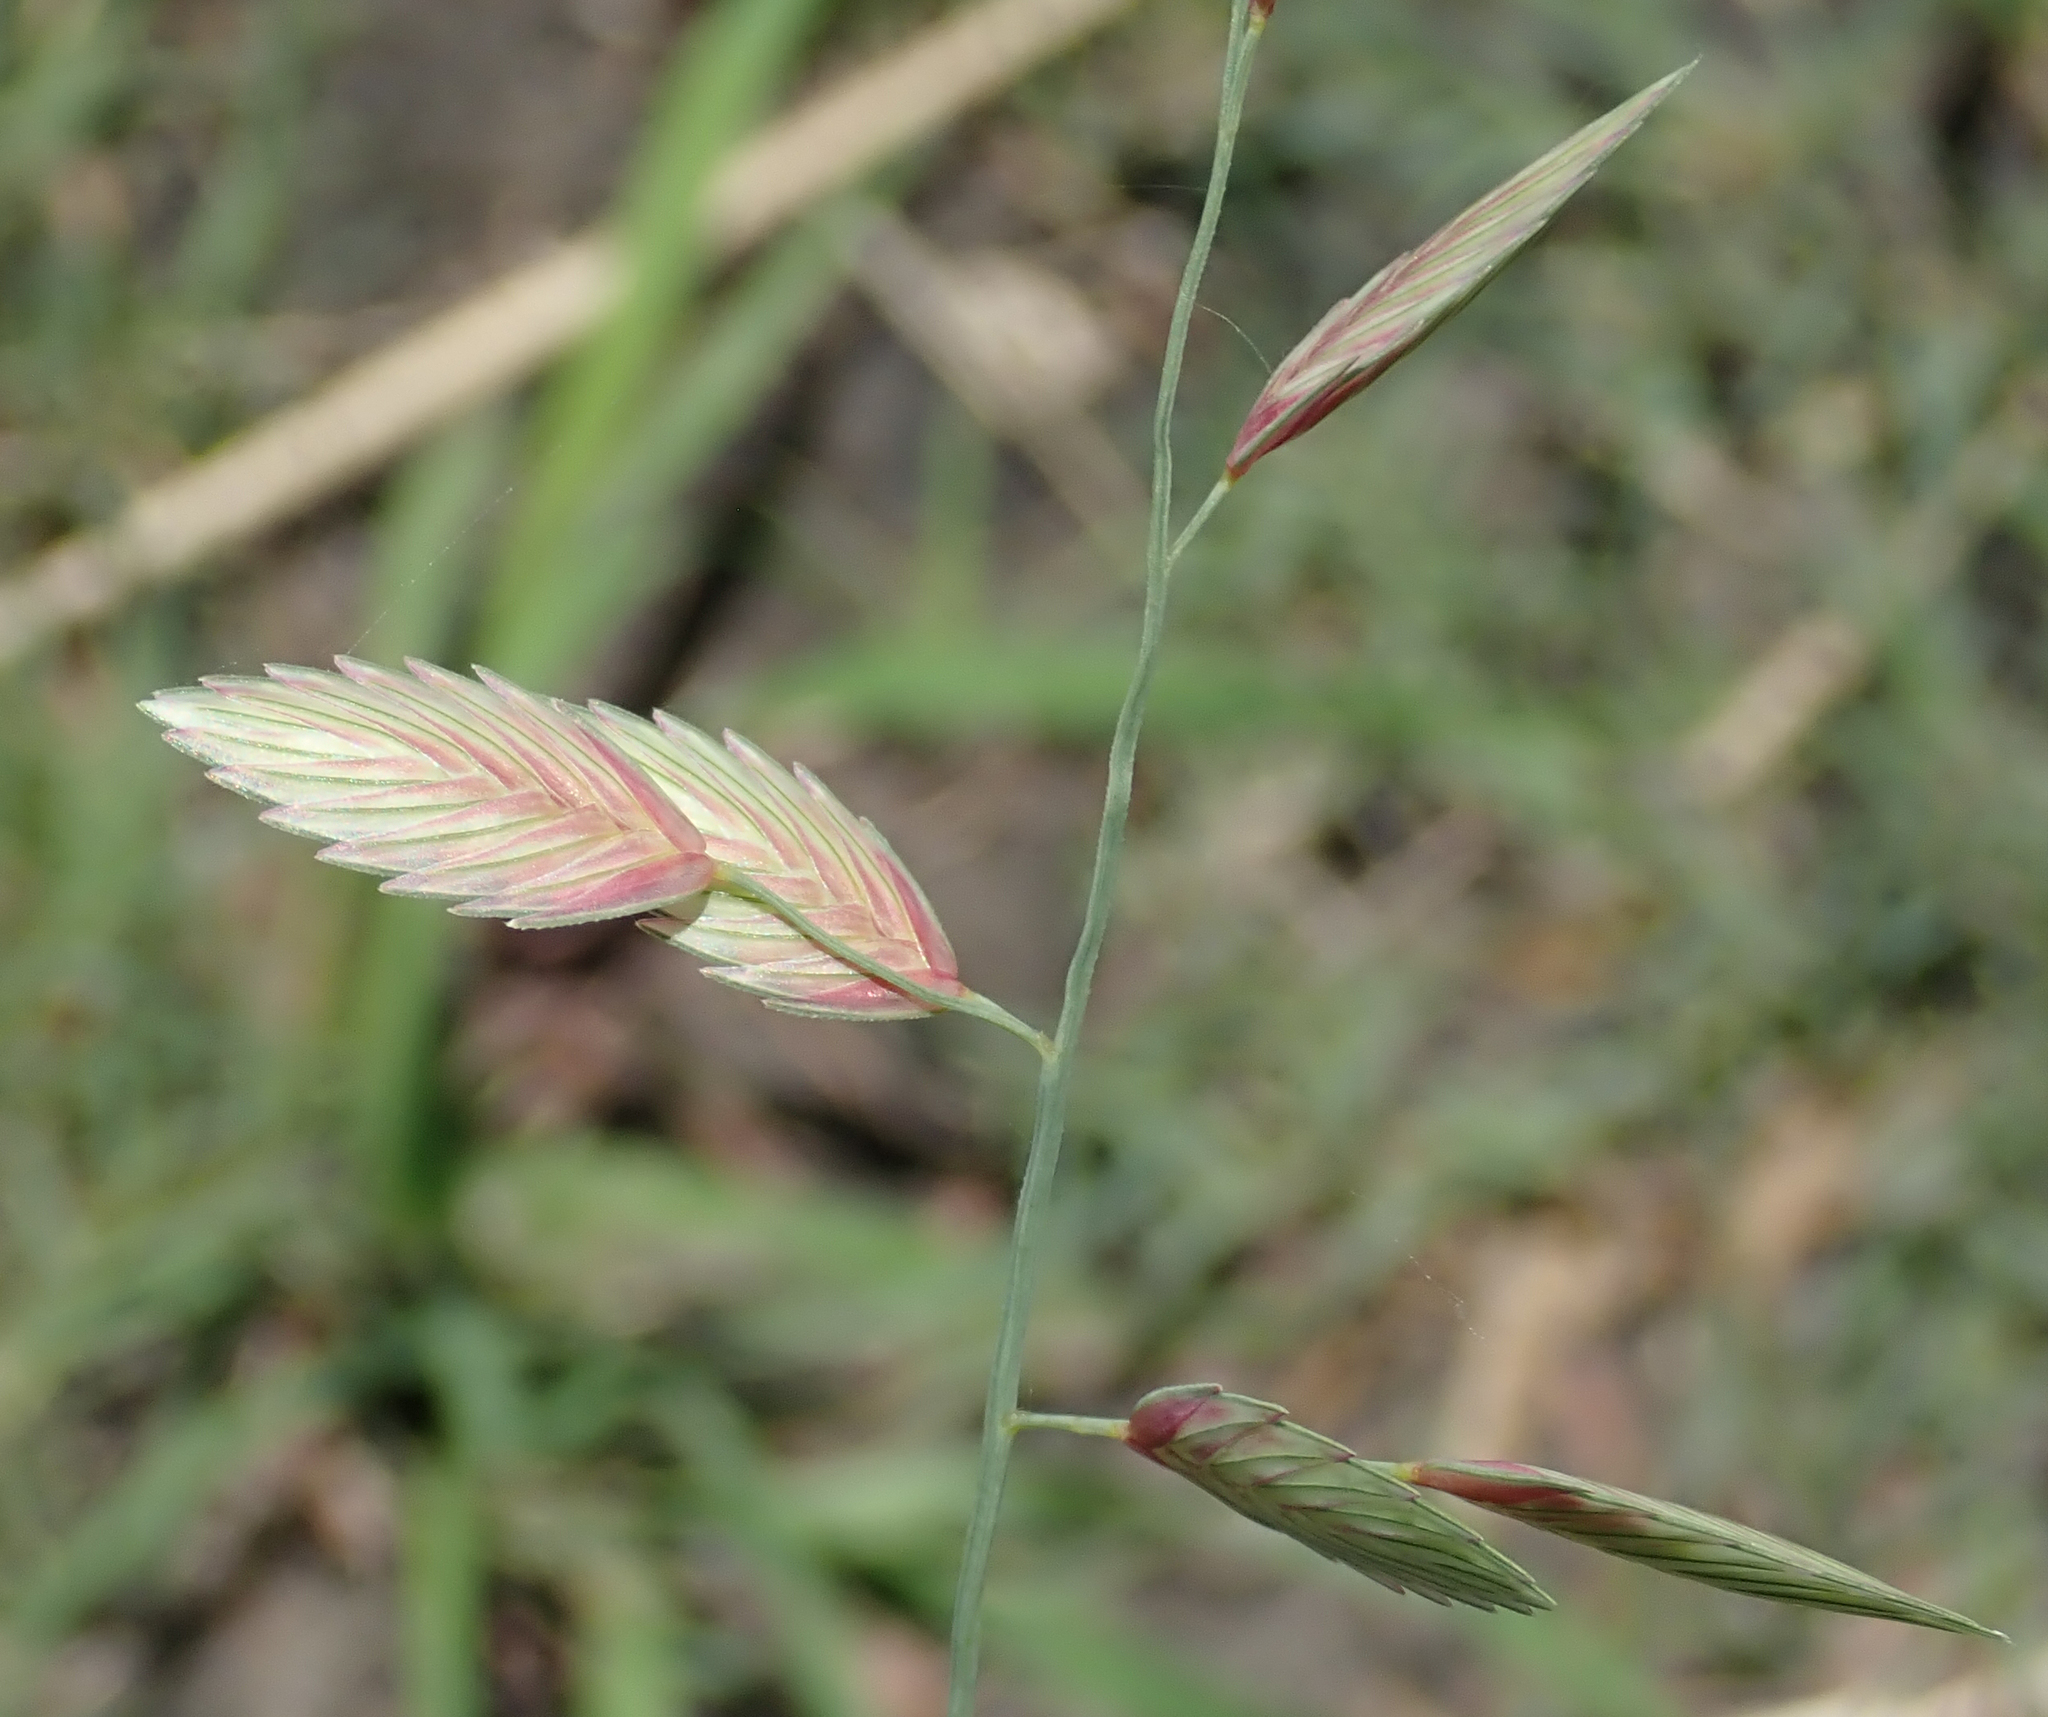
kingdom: Plantae
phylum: Tracheophyta
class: Liliopsida
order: Poales
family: Poaceae
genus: Eragrostis
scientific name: Eragrostis superba
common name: Wilman lovegrass
